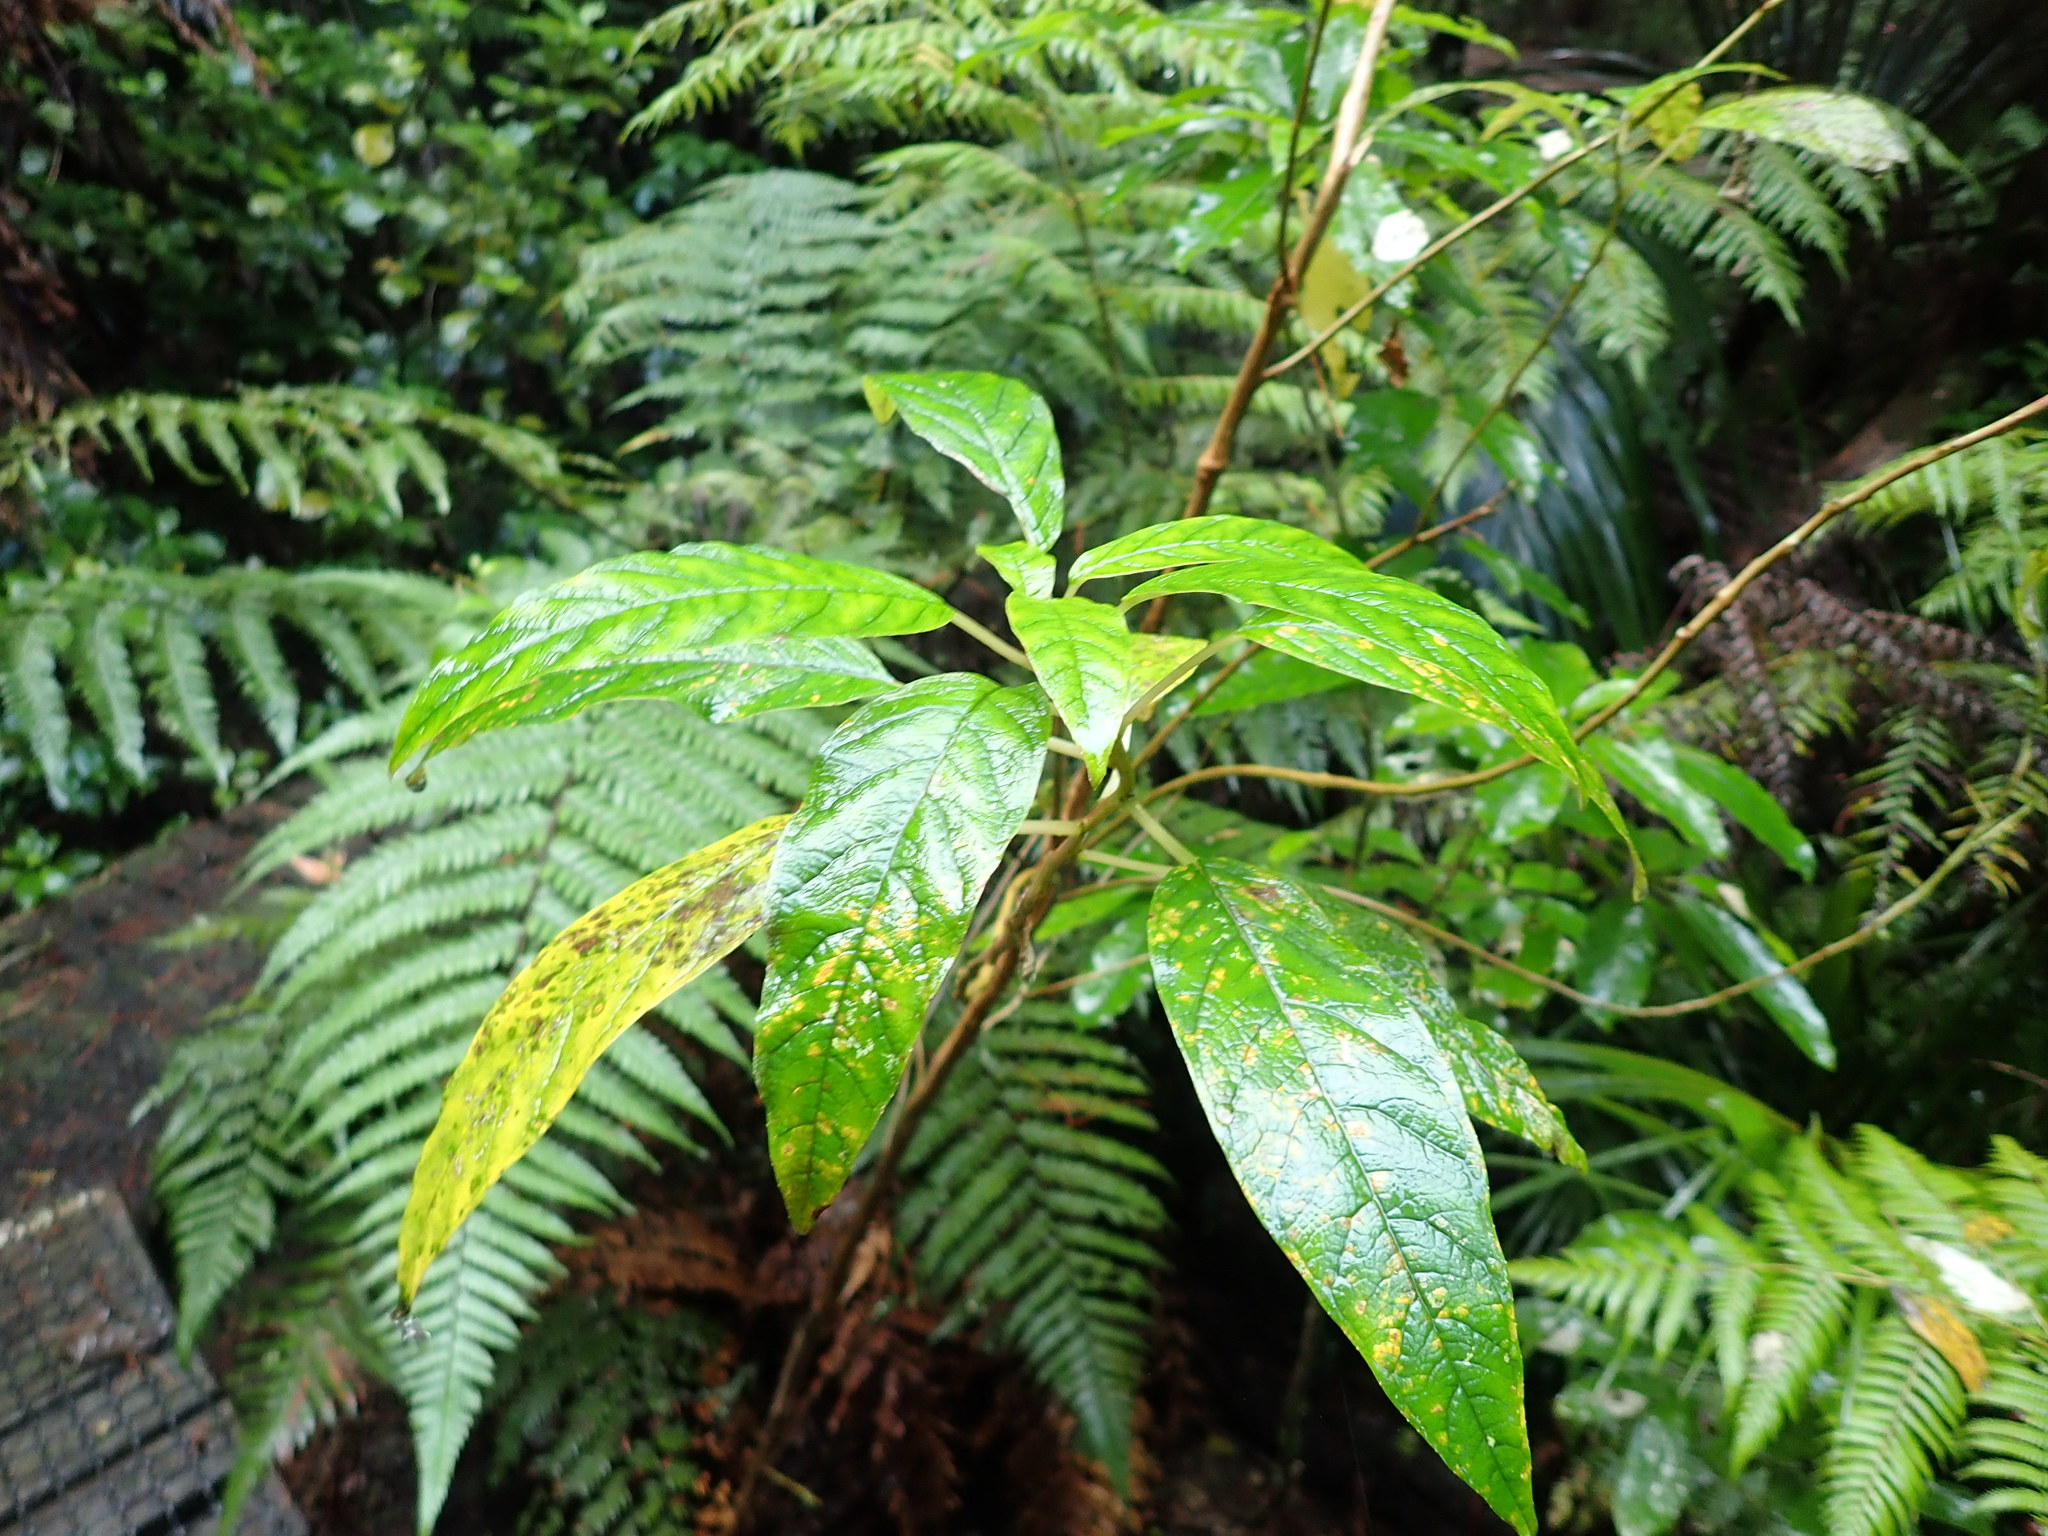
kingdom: Plantae
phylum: Tracheophyta
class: Magnoliopsida
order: Myrtales
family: Onagraceae
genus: Fuchsia
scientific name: Fuchsia excorticata
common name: Tree fuchsia
